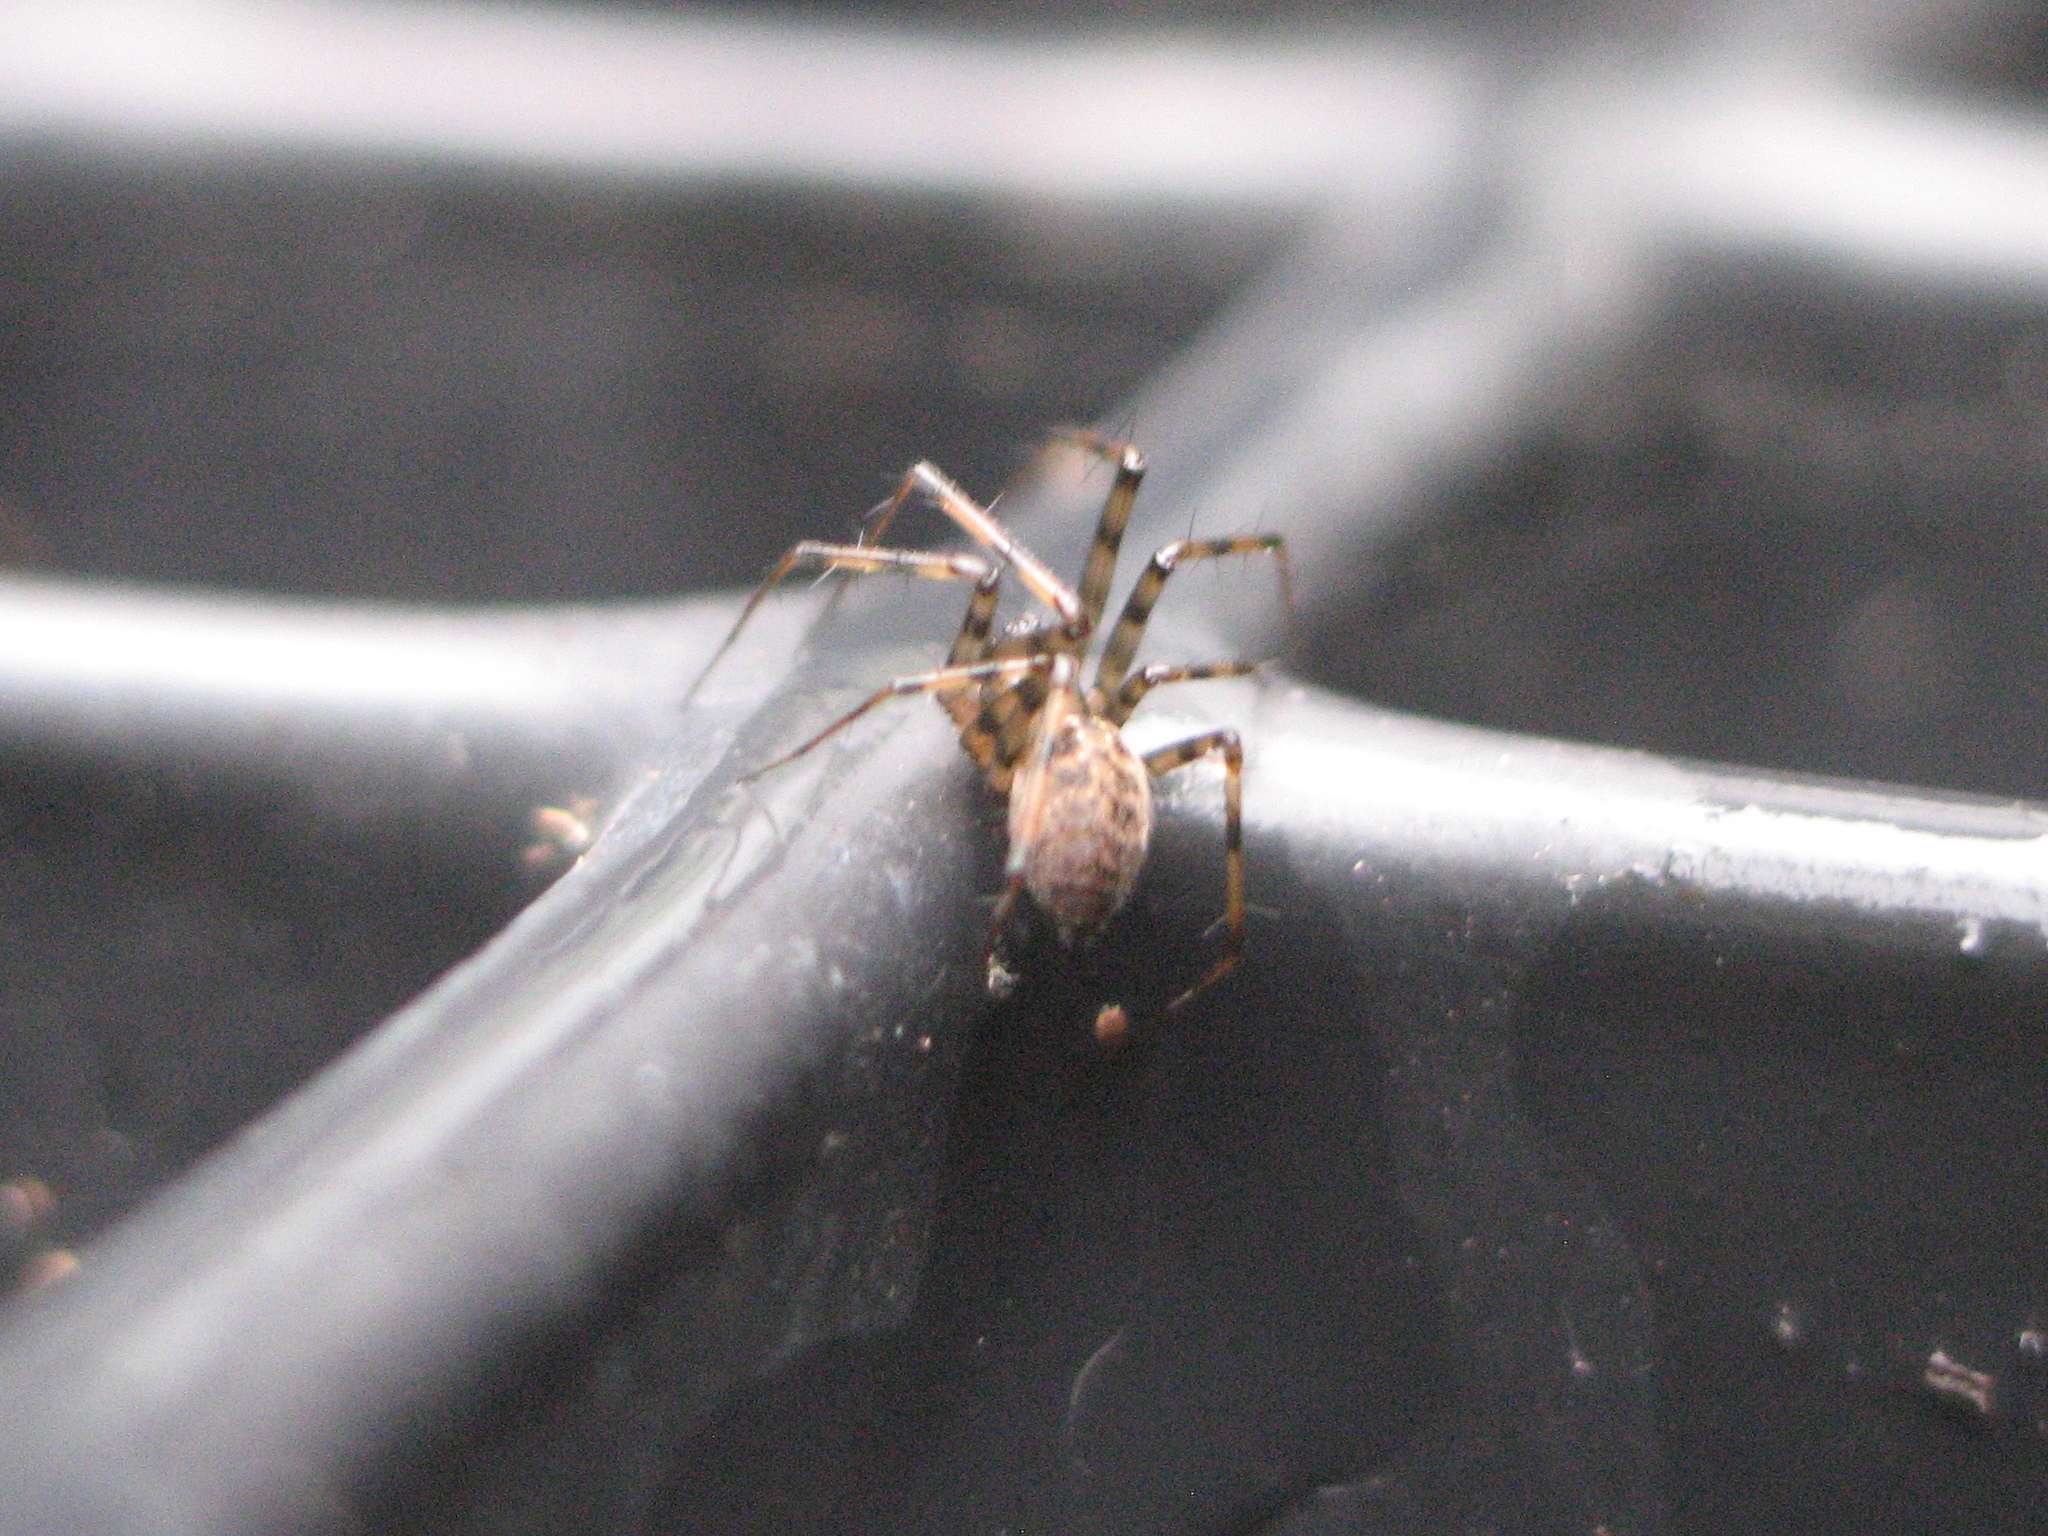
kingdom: Animalia
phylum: Arthropoda
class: Arachnida
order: Araneae
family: Linyphiidae
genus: Labulla
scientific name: Labulla thoracica
